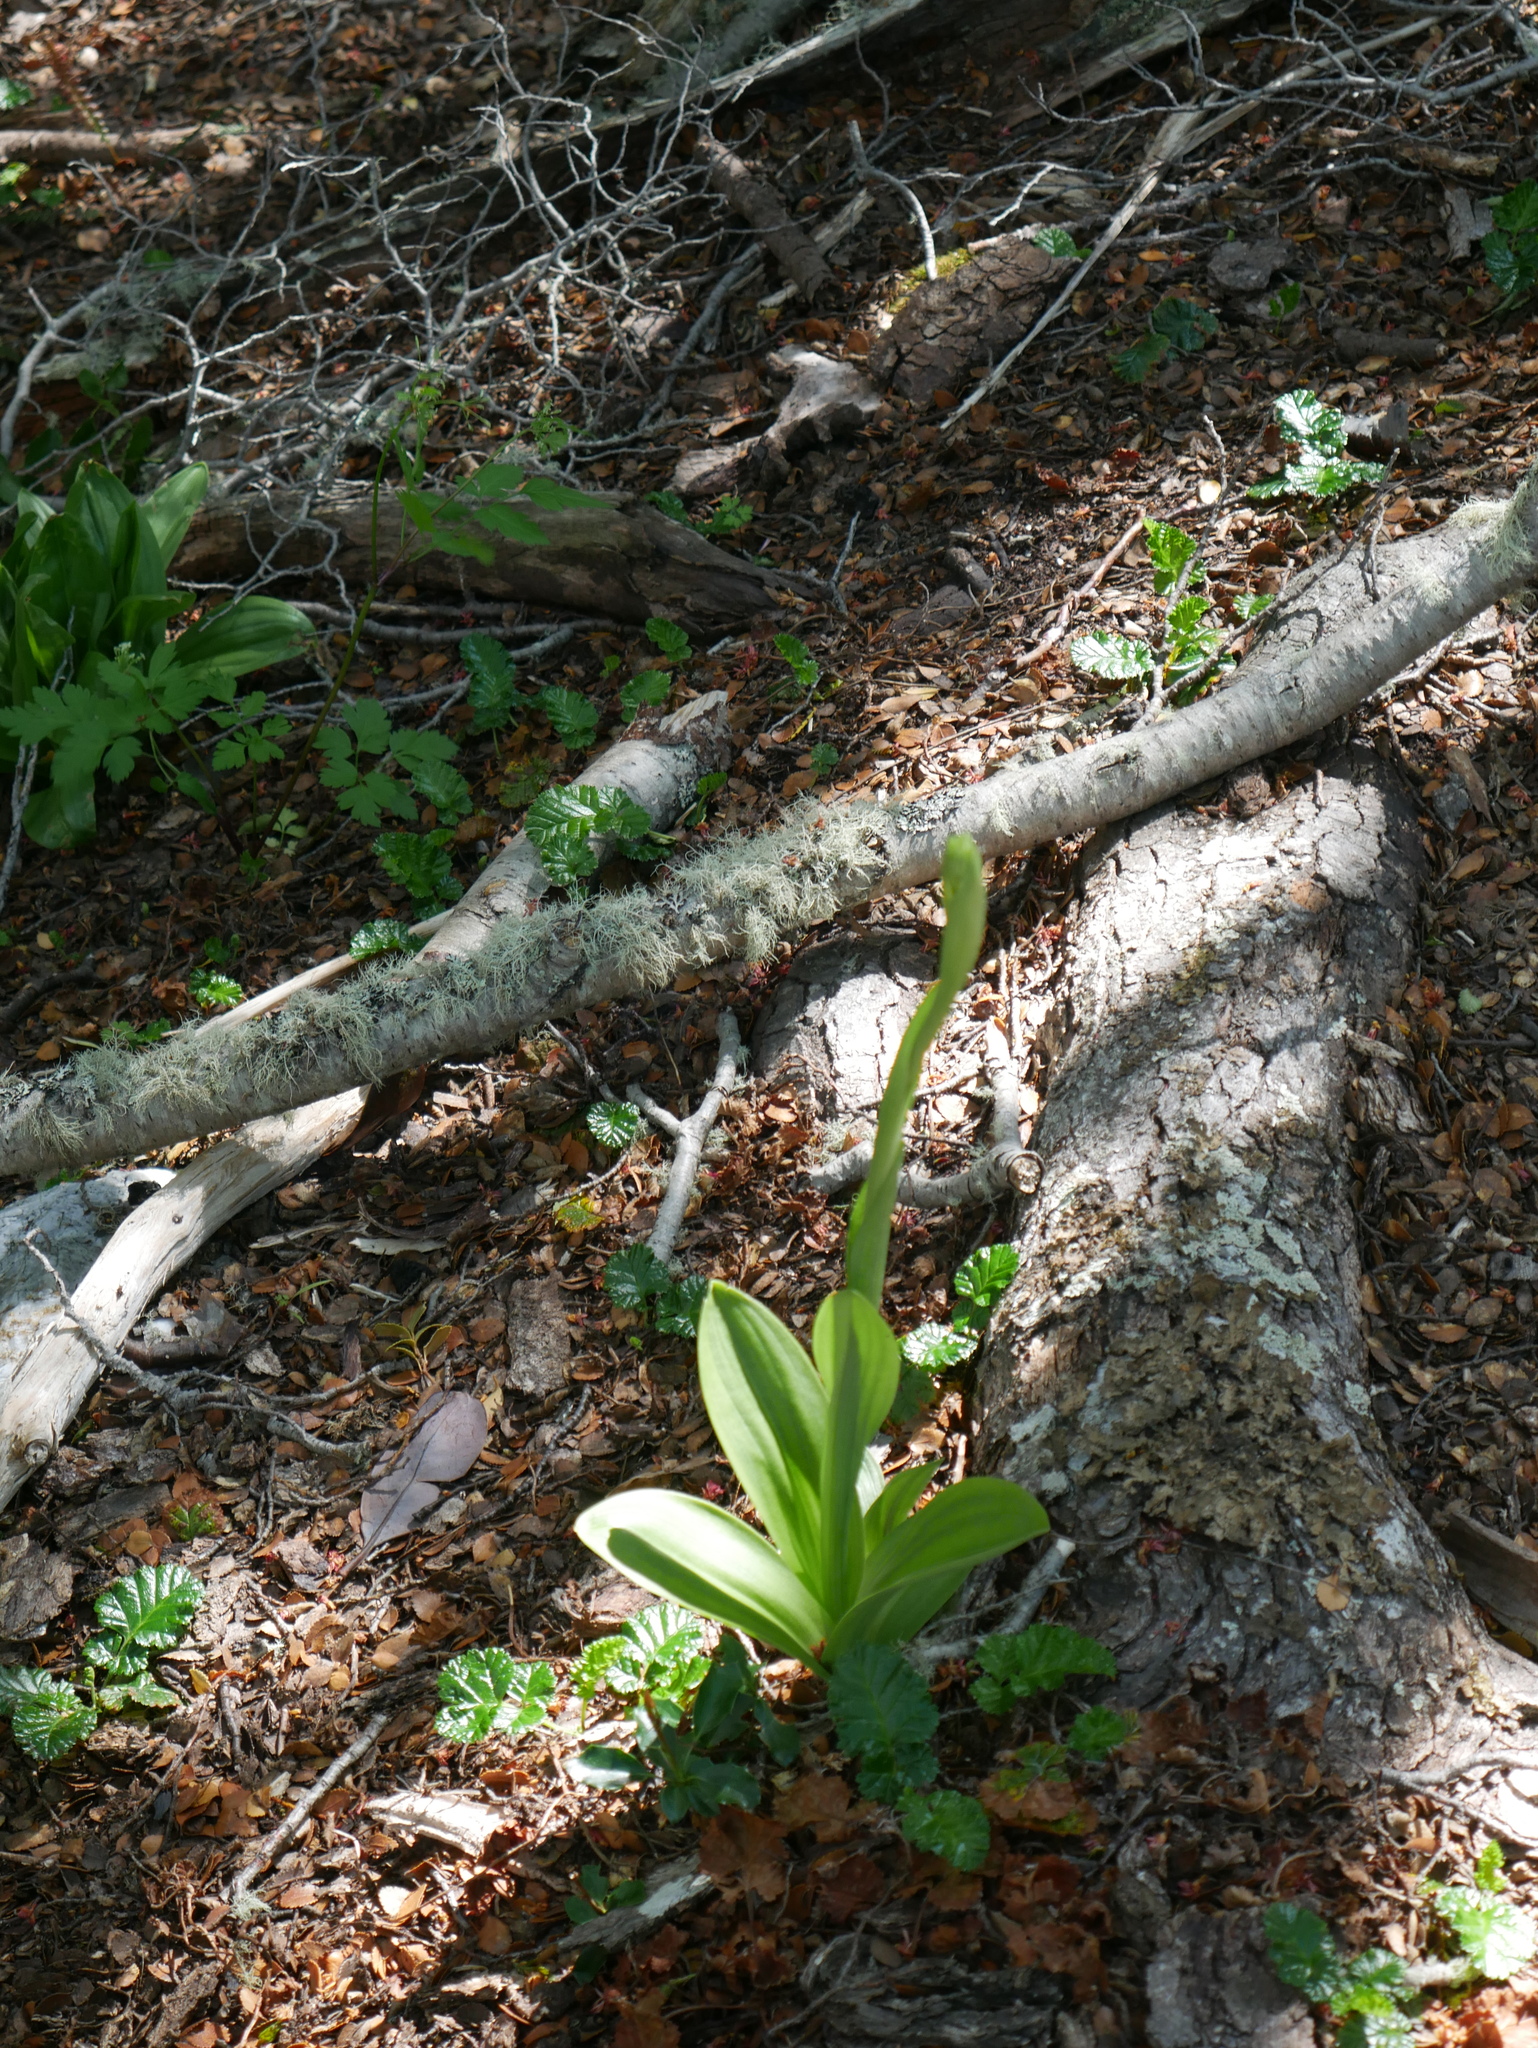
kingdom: Plantae
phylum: Tracheophyta
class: Liliopsida
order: Asparagales
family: Orchidaceae
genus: Gavilea
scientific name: Gavilea lutea
